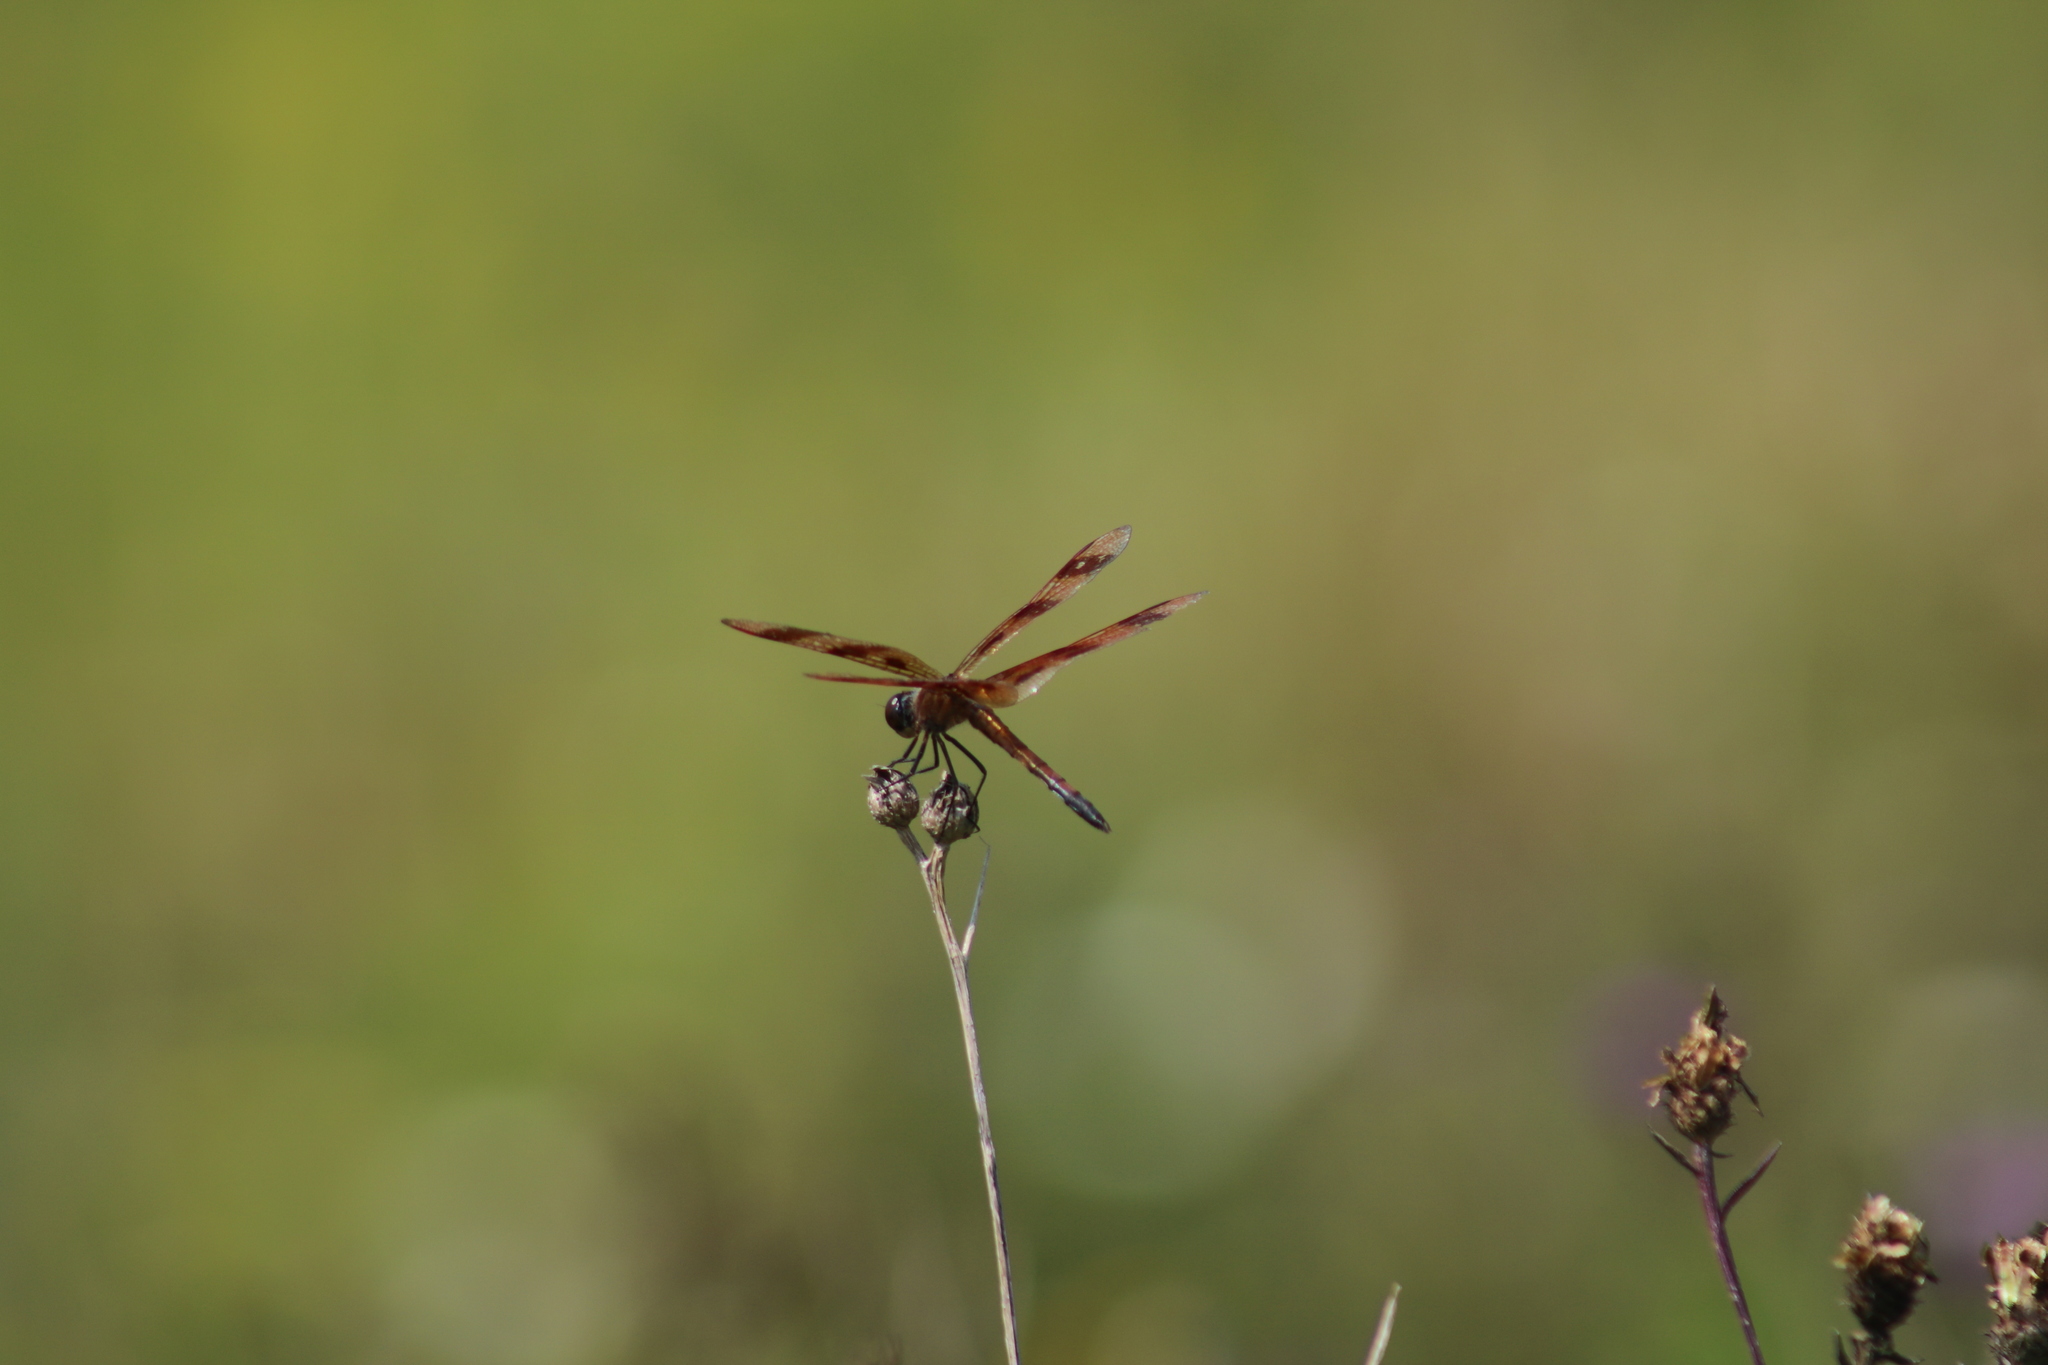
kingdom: Animalia
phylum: Arthropoda
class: Insecta
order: Odonata
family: Libellulidae
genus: Celithemis
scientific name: Celithemis eponina
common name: Halloween pennant
